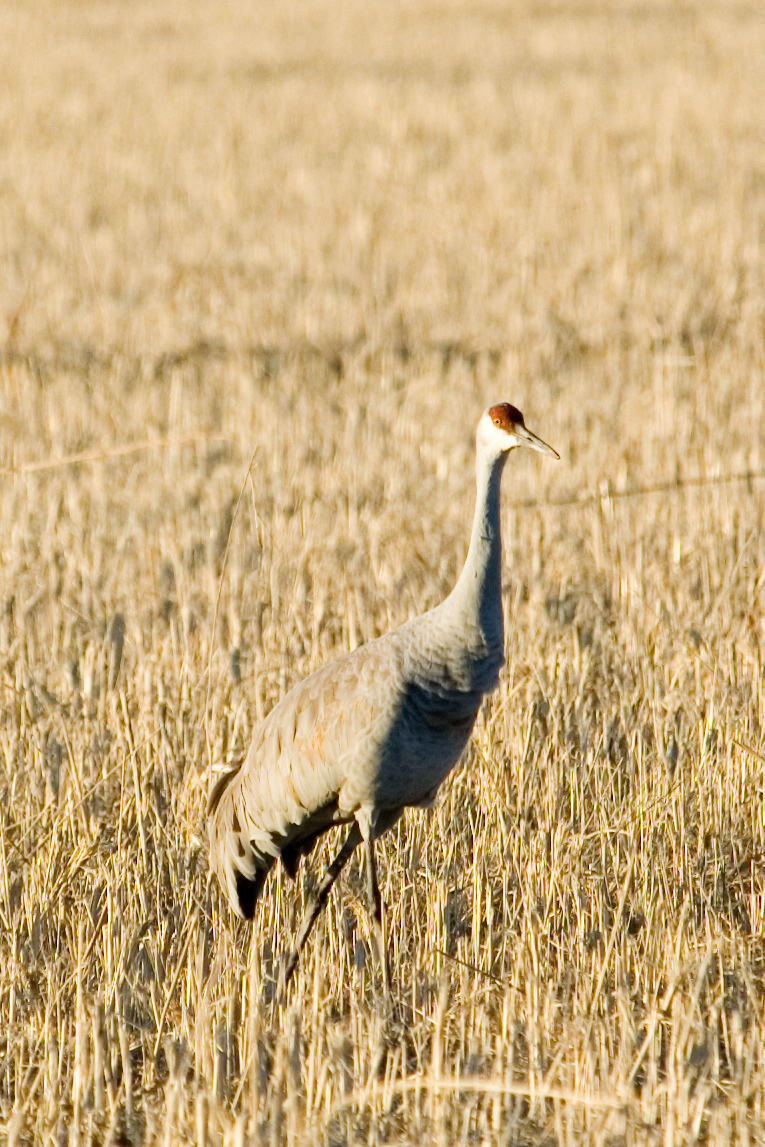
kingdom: Animalia
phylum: Chordata
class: Aves
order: Gruiformes
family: Gruidae
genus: Grus
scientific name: Grus canadensis
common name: Sandhill crane
